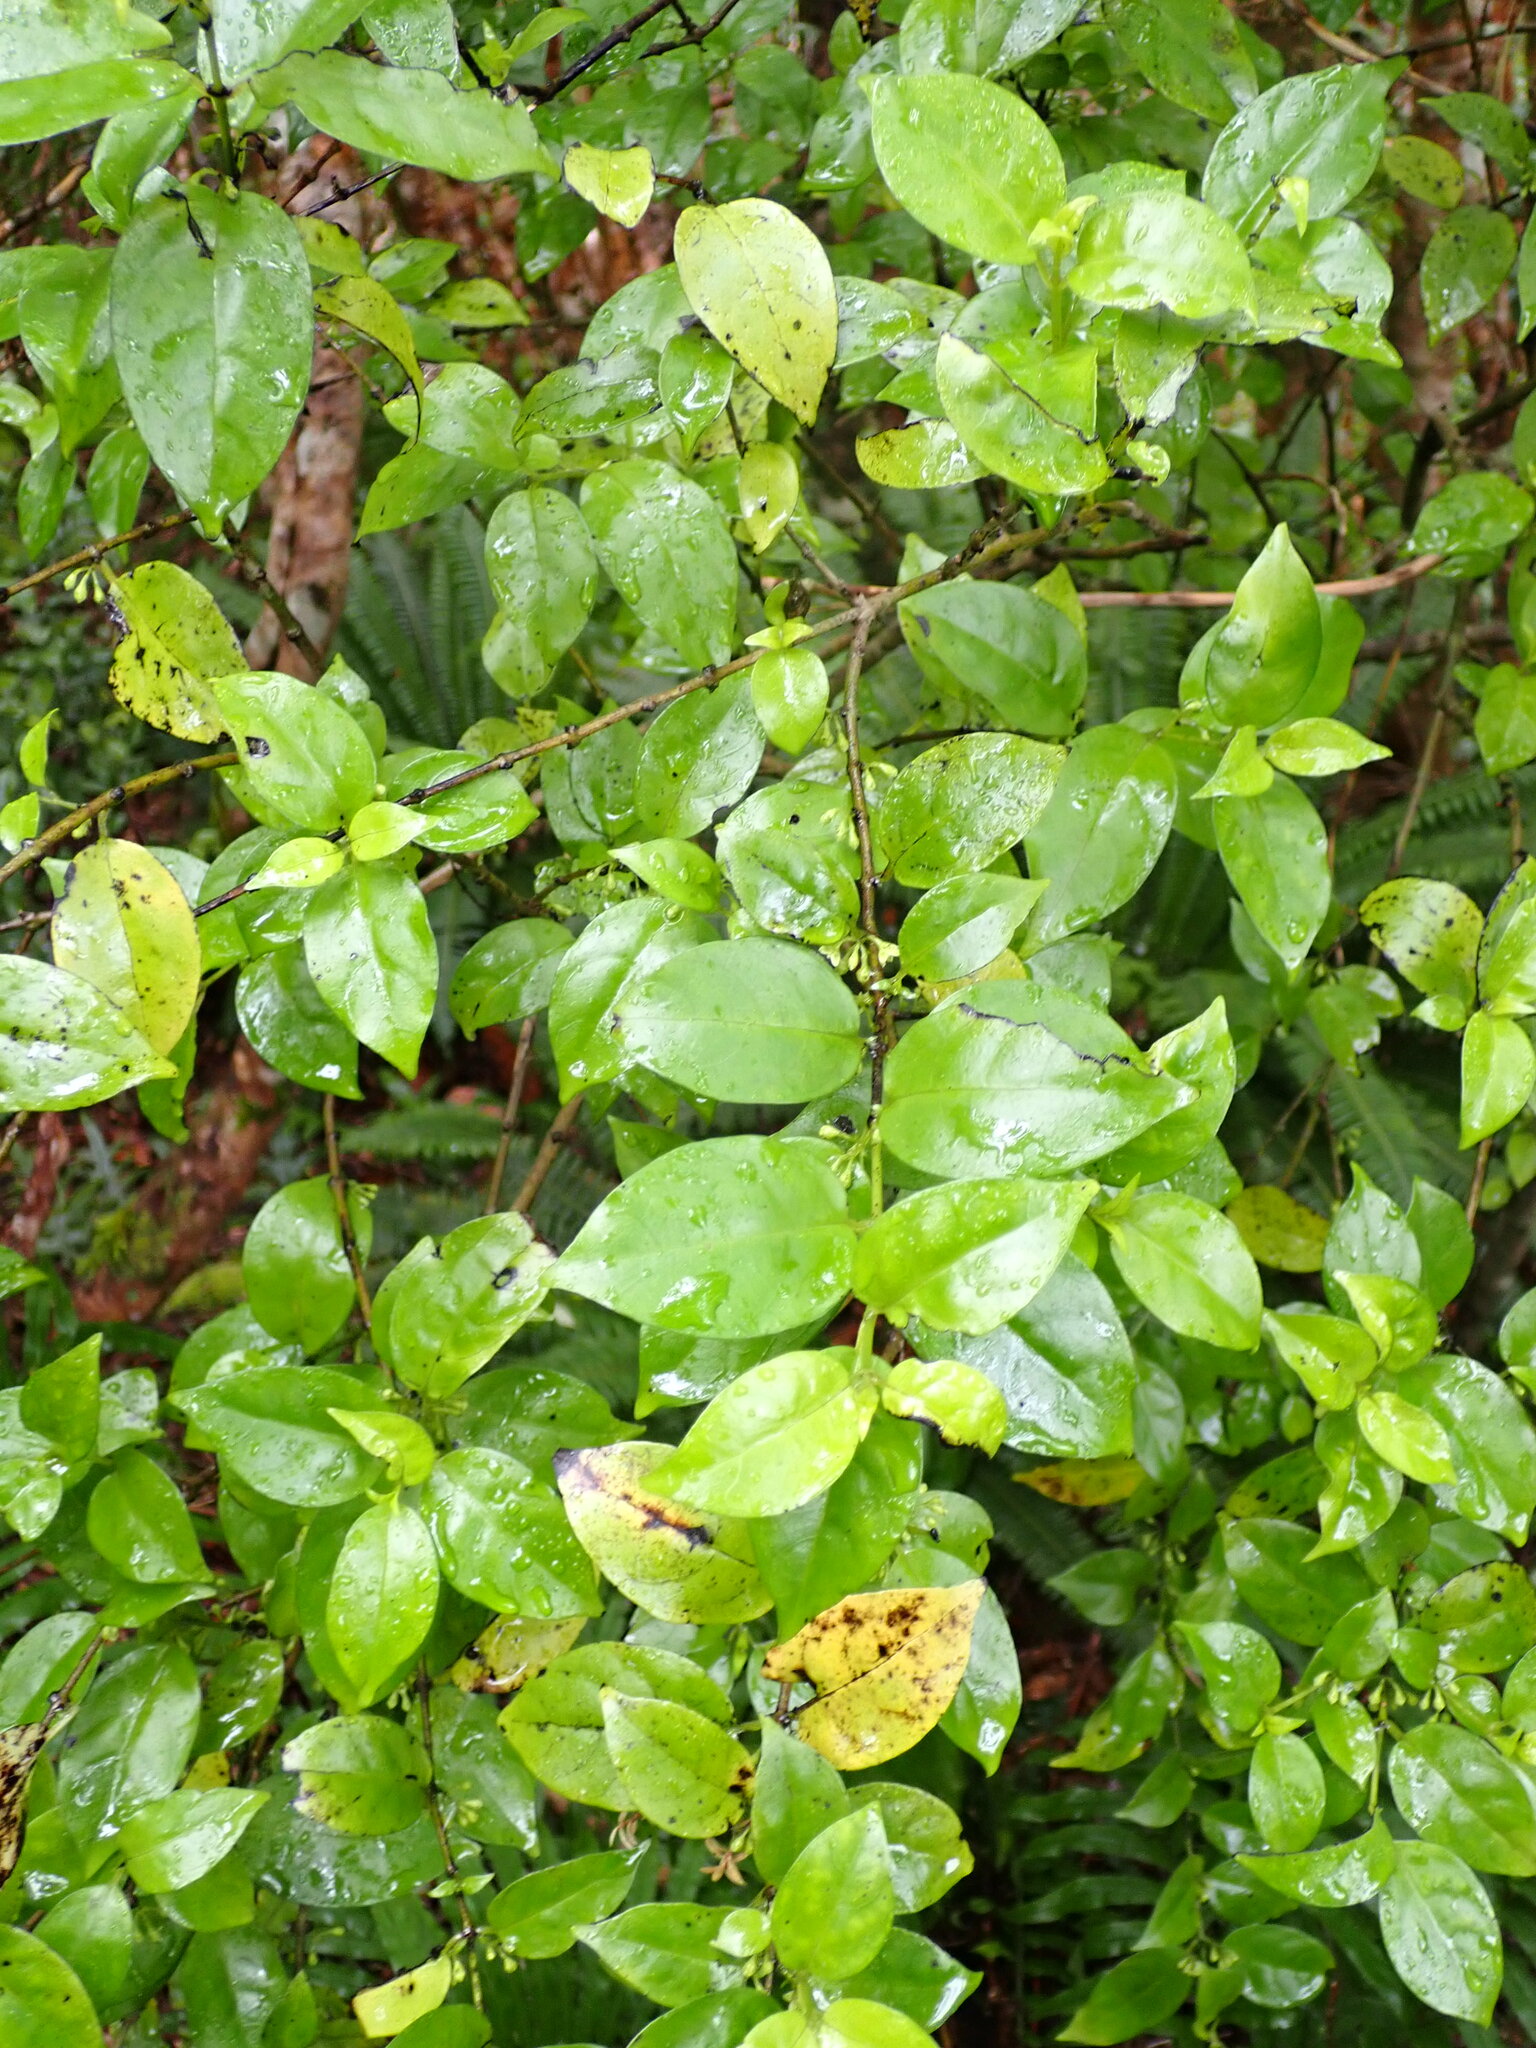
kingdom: Plantae
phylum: Tracheophyta
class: Magnoliopsida
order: Gentianales
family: Loganiaceae
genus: Geniostoma
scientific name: Geniostoma ligustrifolium
